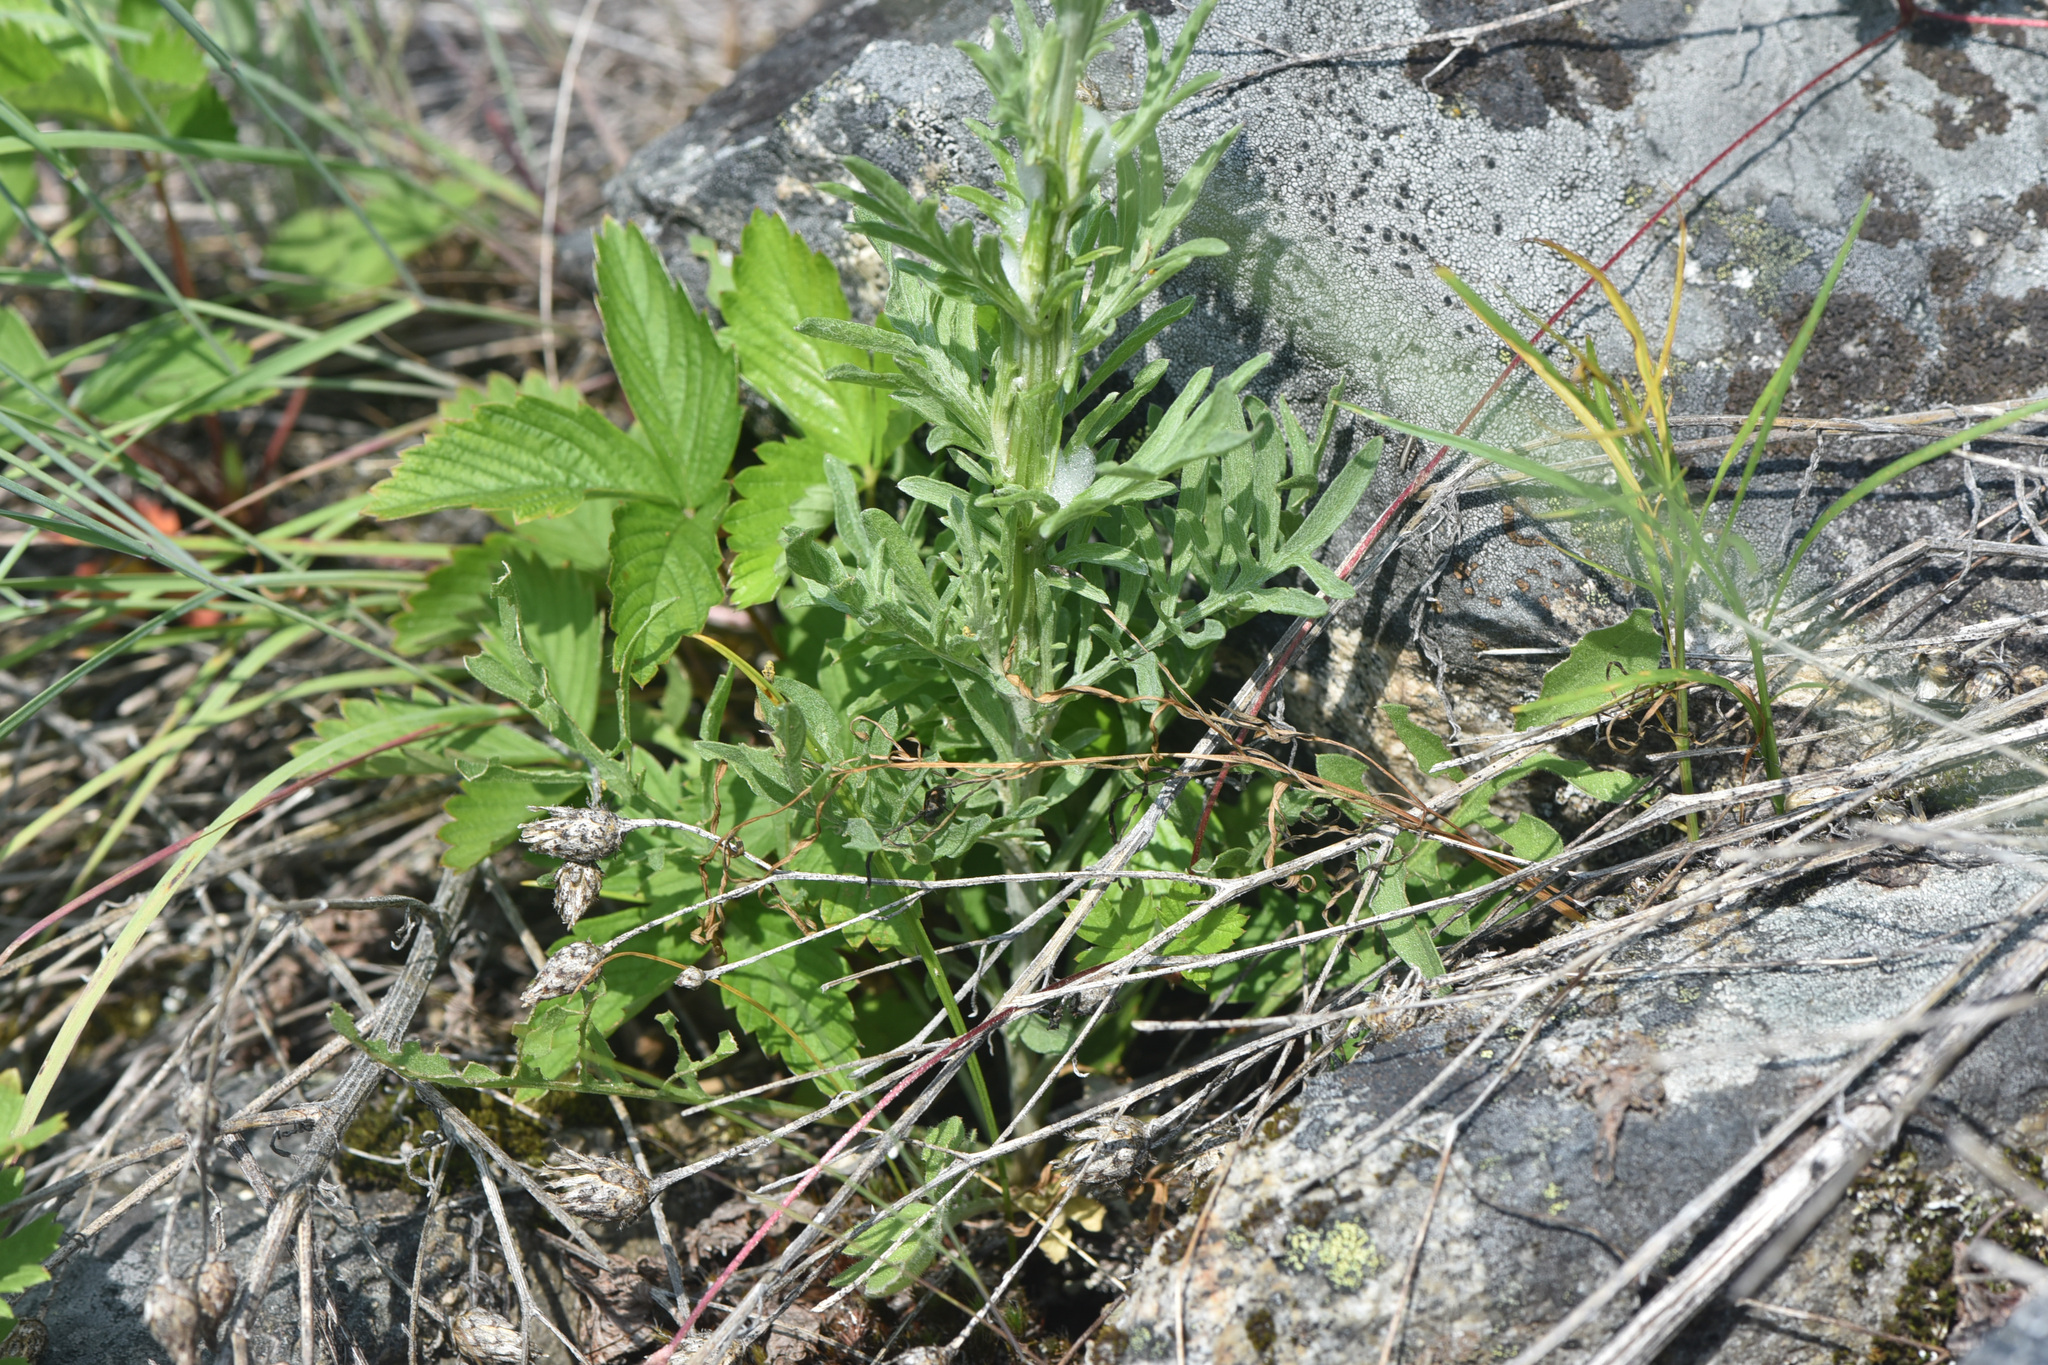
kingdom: Plantae
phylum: Tracheophyta
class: Magnoliopsida
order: Asterales
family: Asteraceae
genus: Centaurea
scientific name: Centaurea stoebe
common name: Spotted knapweed
